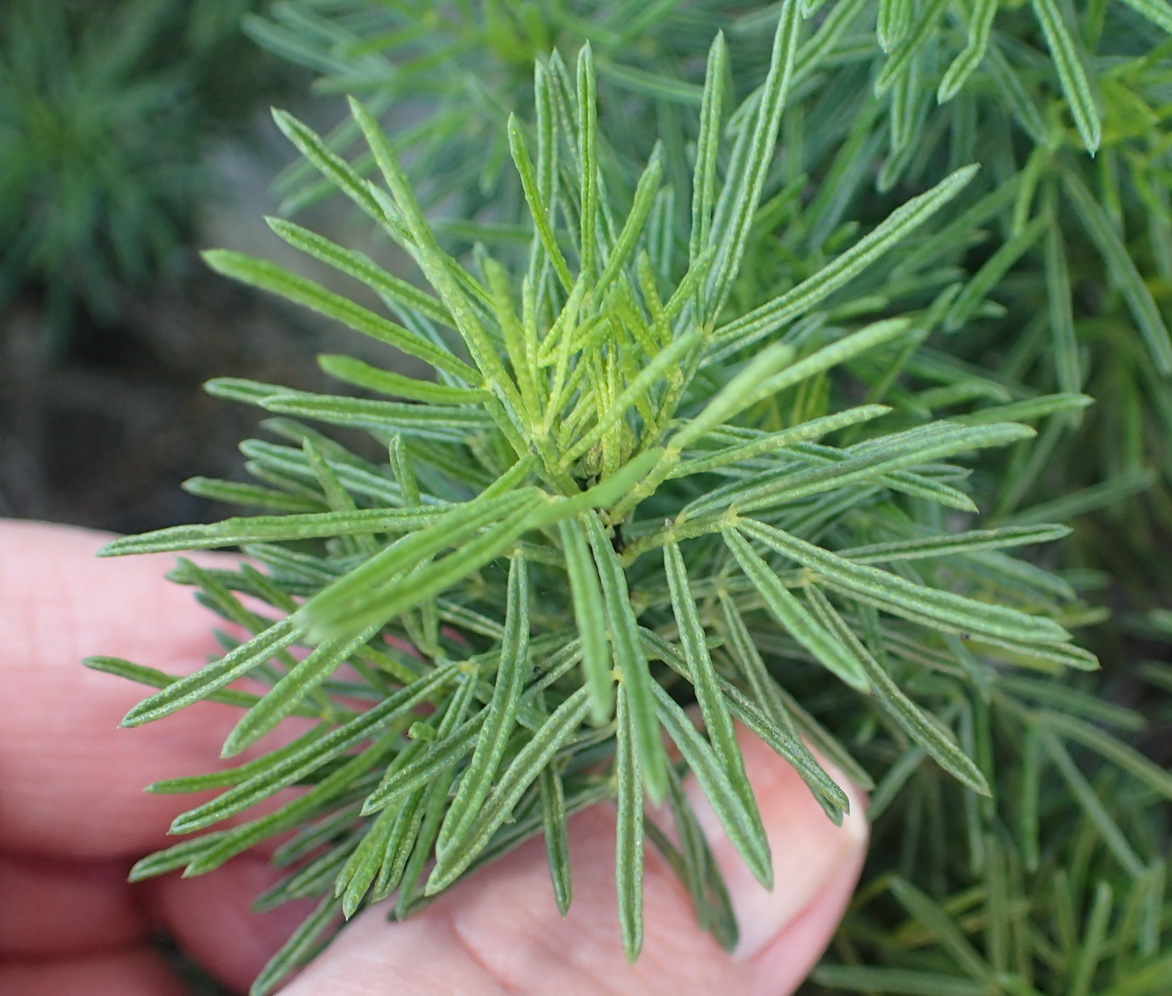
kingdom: Plantae
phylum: Tracheophyta
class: Magnoliopsida
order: Fabales
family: Fabaceae
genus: Psoralea
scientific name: Psoralea vanberkelae
